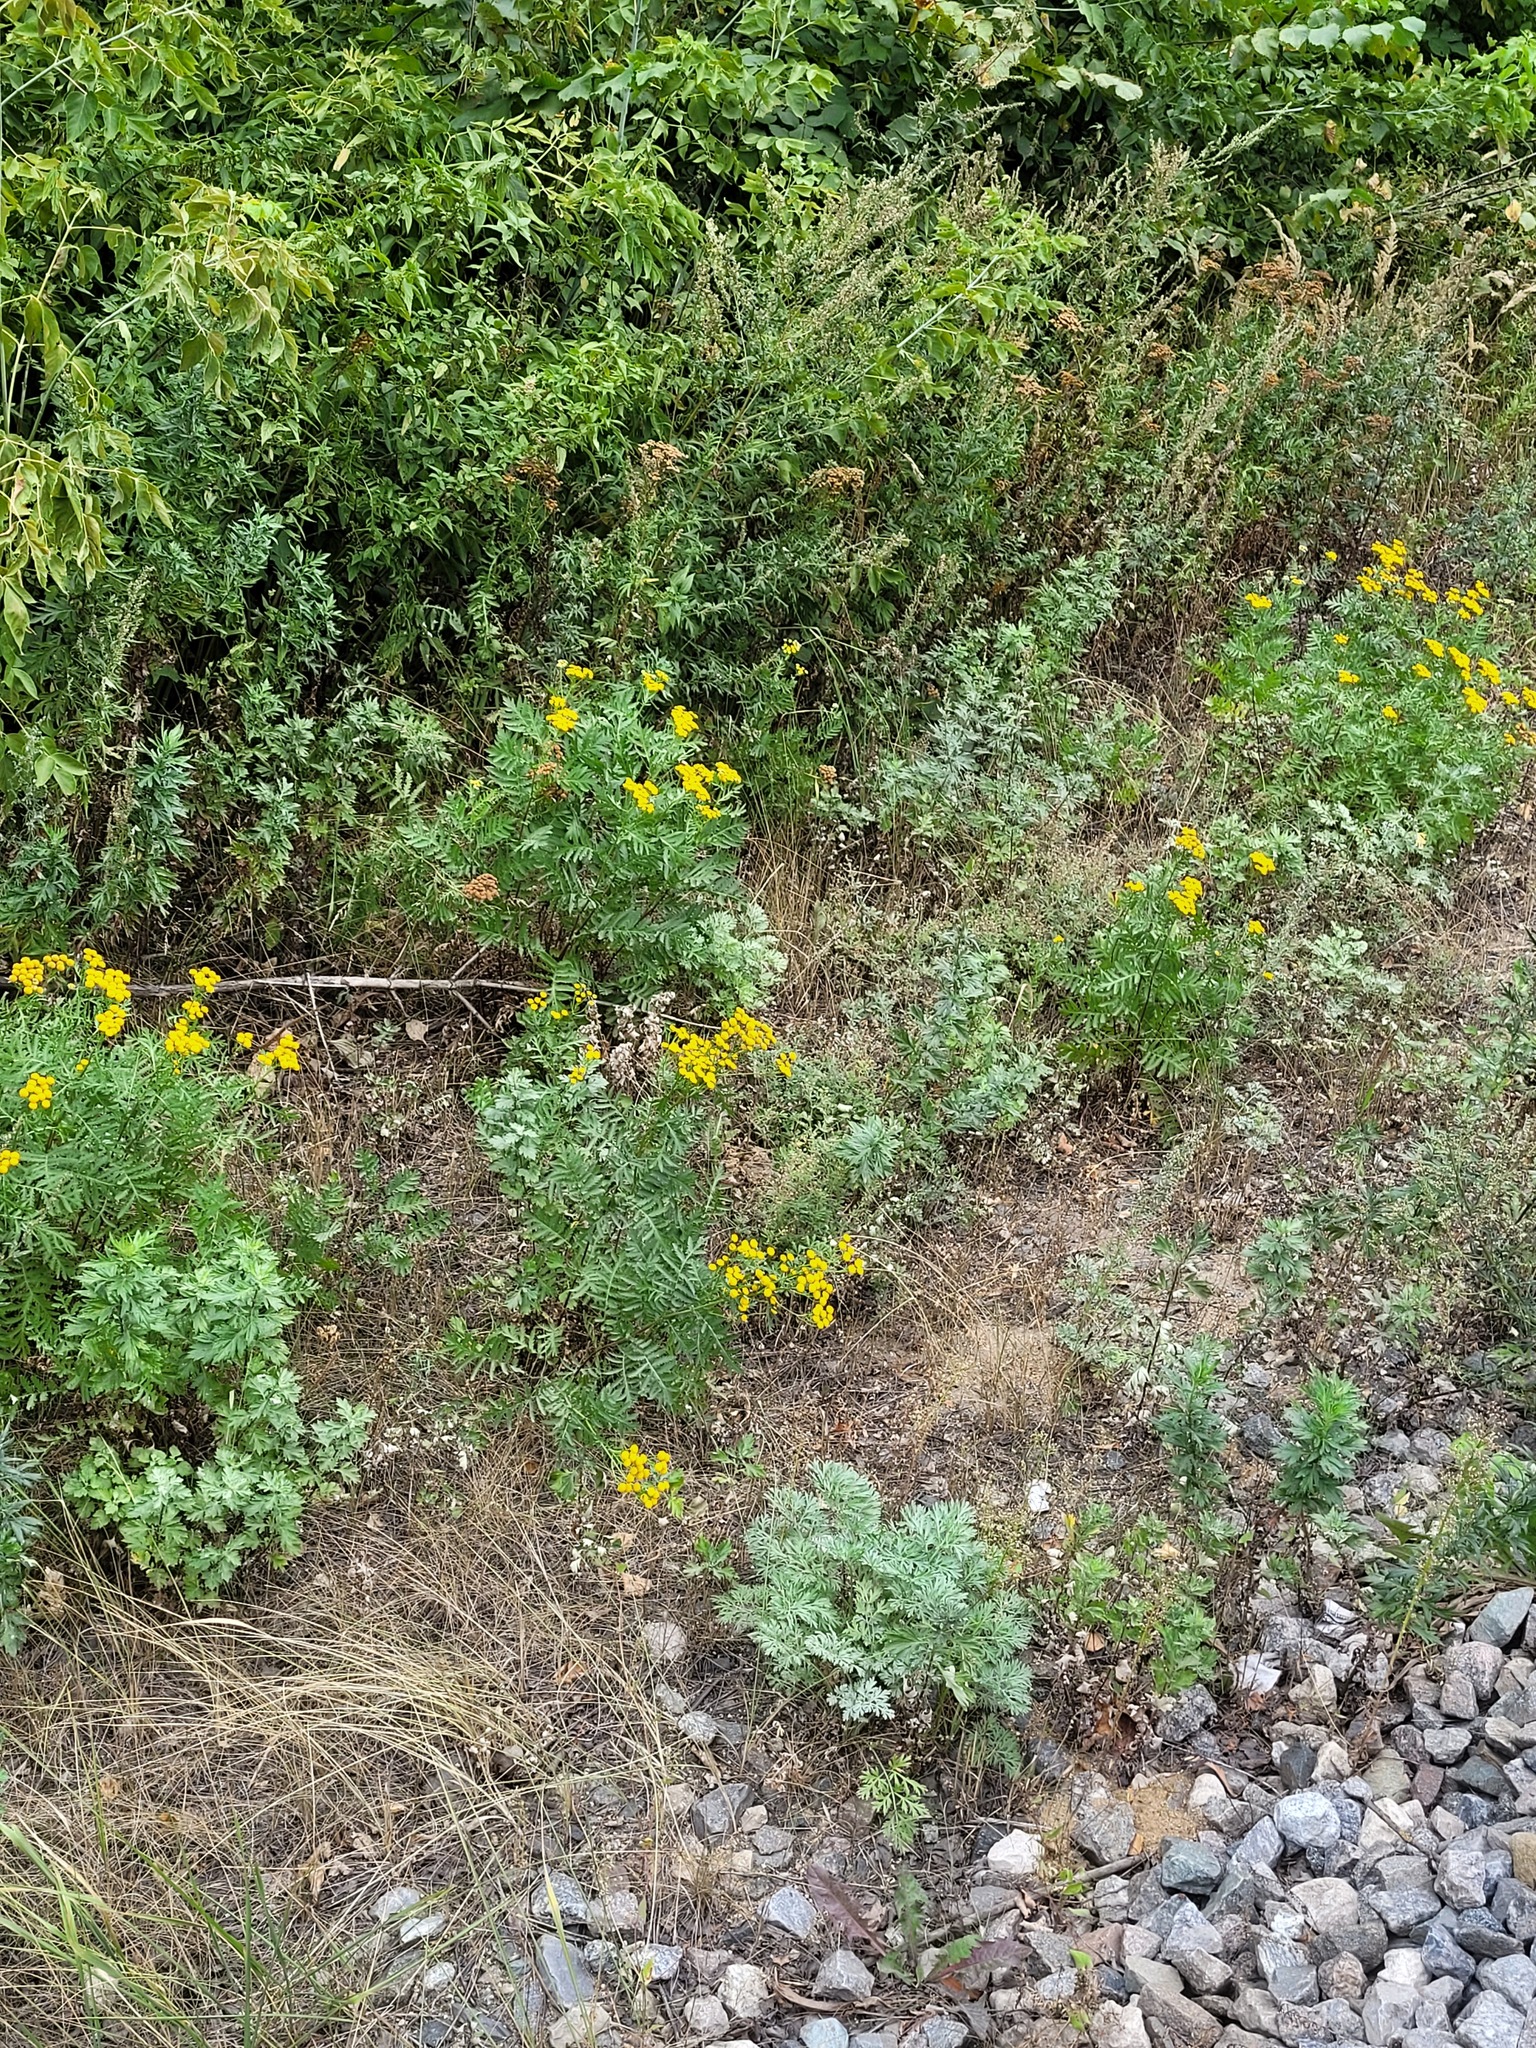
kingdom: Plantae
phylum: Tracheophyta
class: Magnoliopsida
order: Asterales
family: Asteraceae
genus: Tanacetum
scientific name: Tanacetum vulgare
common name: Common tansy
